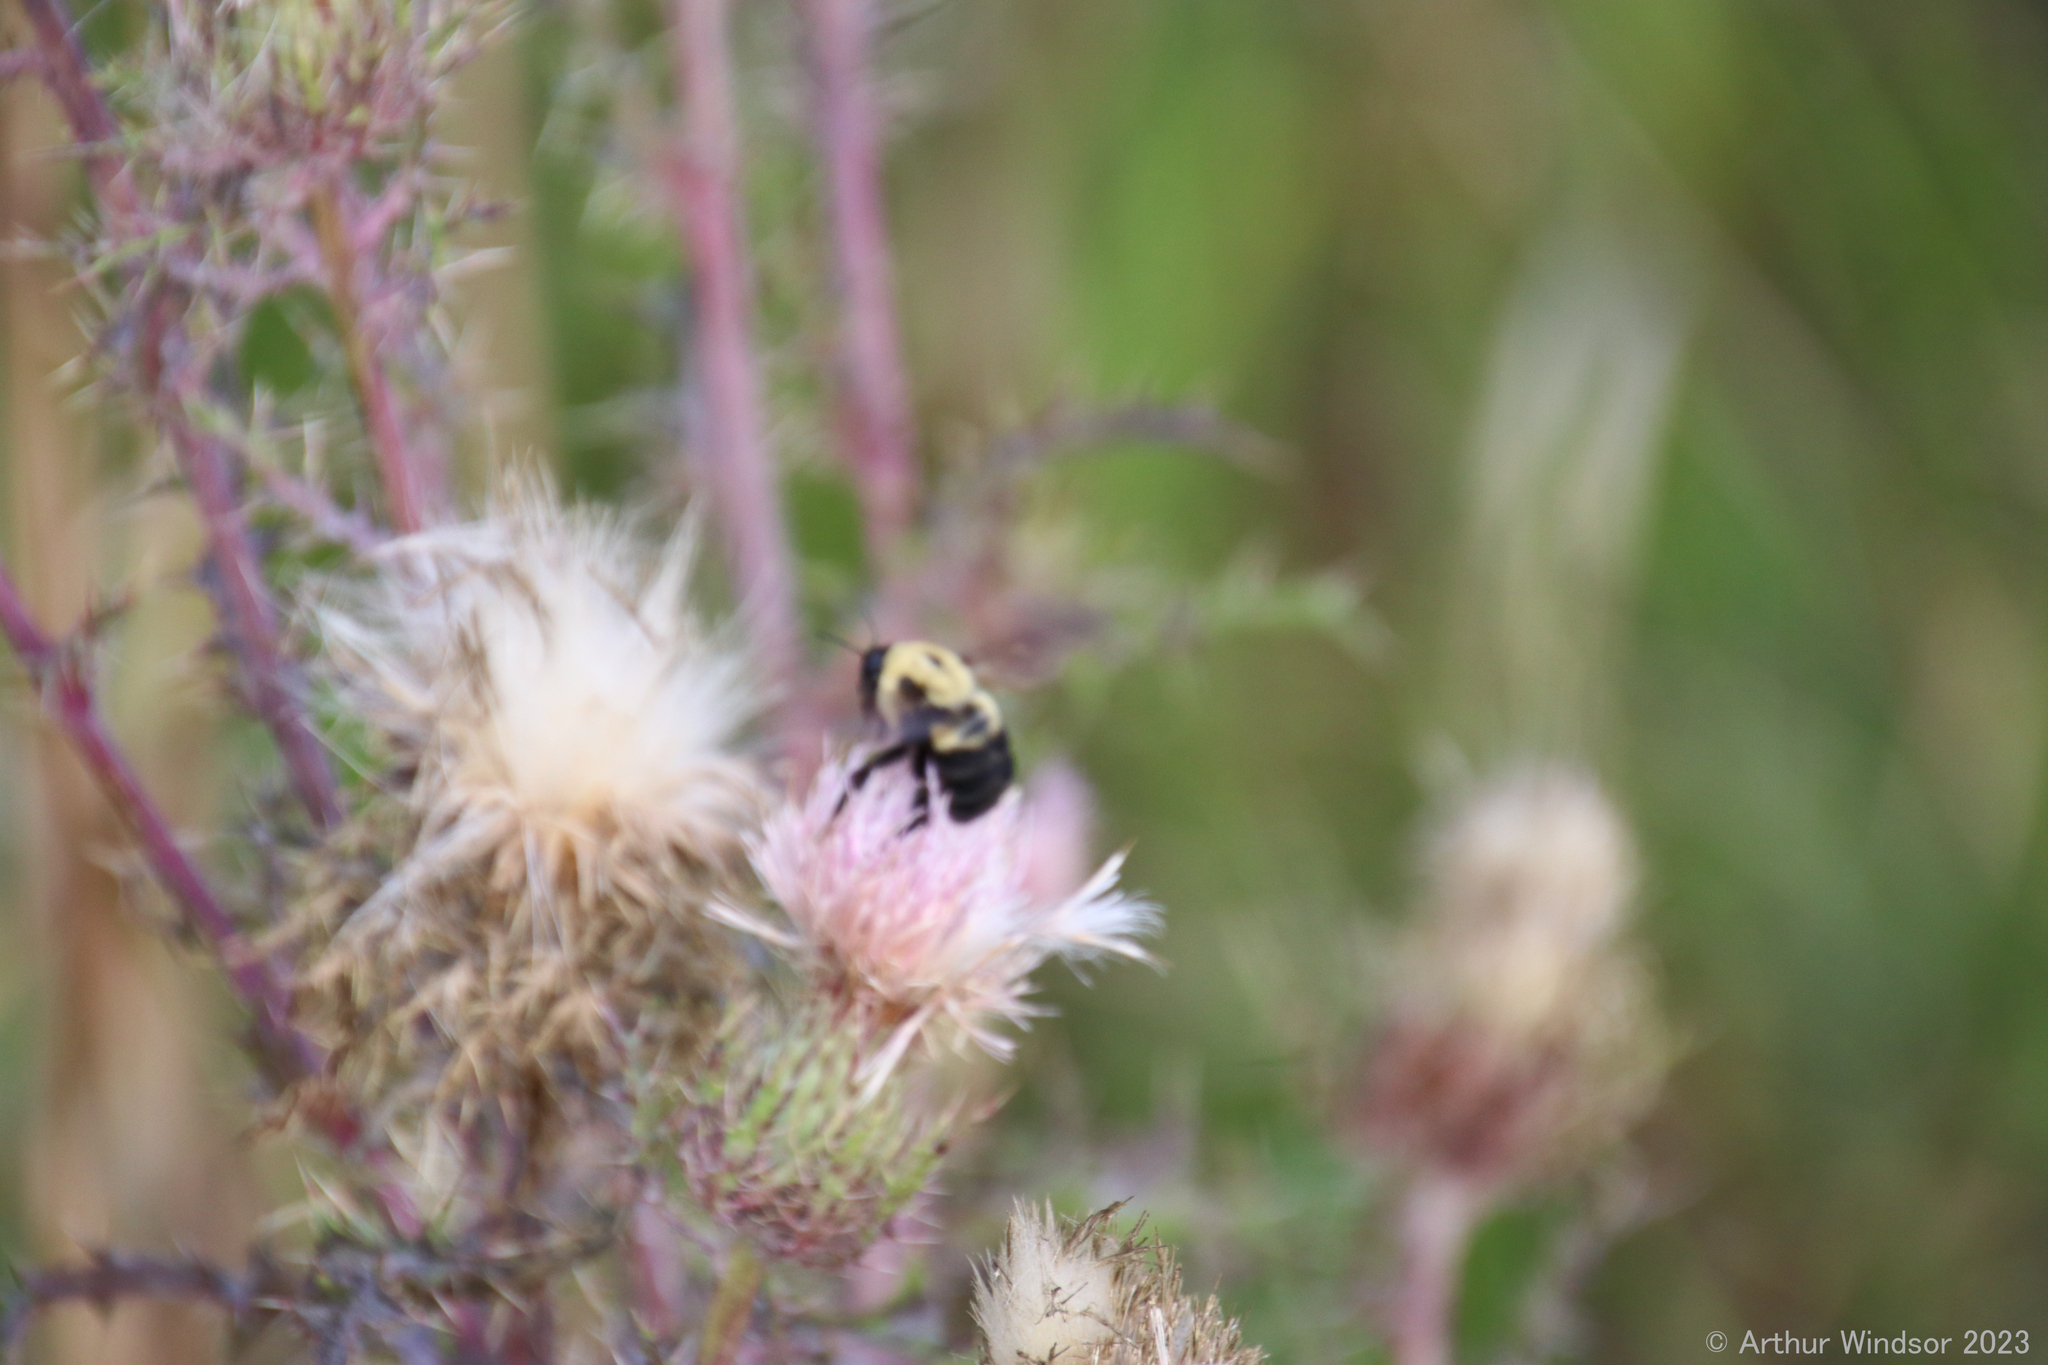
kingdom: Animalia
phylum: Arthropoda
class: Insecta
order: Hymenoptera
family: Apidae
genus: Bombus
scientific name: Bombus griseocollis
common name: Brown-belted bumble bee
